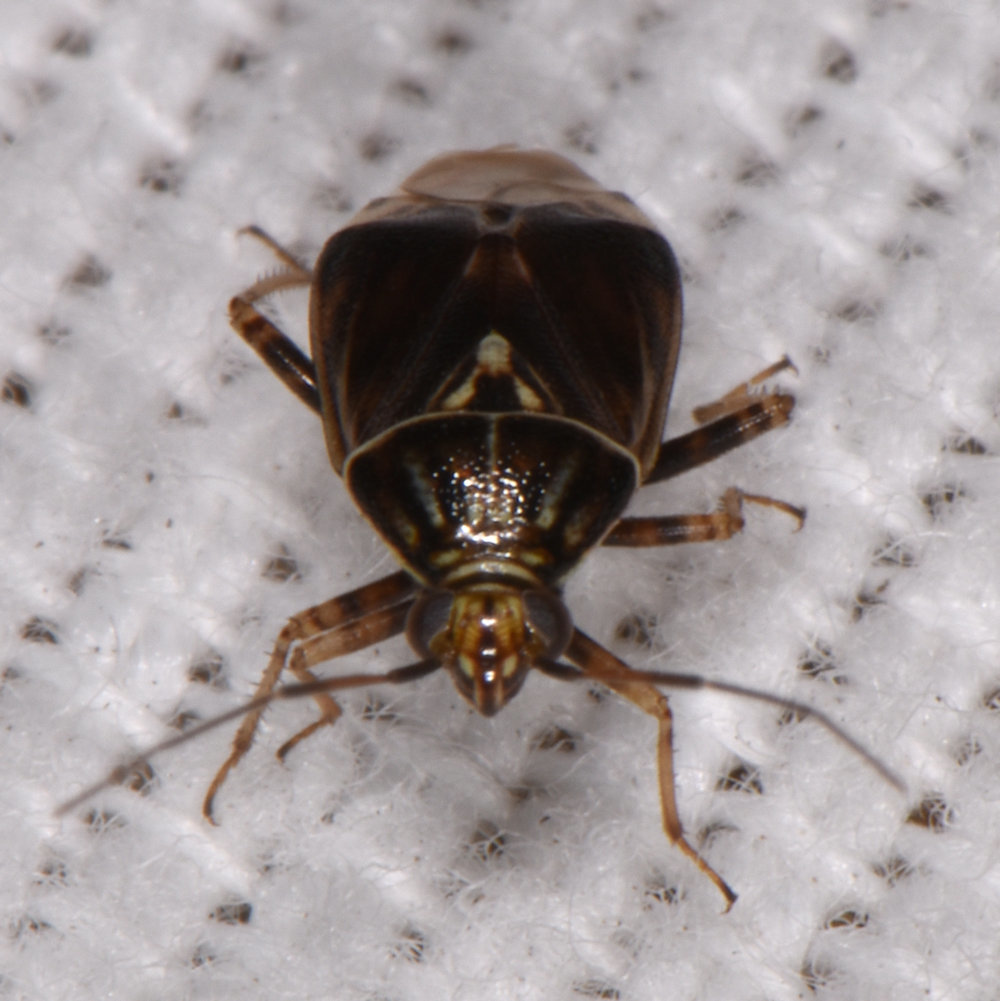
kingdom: Animalia
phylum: Arthropoda
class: Insecta
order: Hemiptera
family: Miridae
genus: Lygus
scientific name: Lygus lineolaris
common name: North american tarnished plant bug
